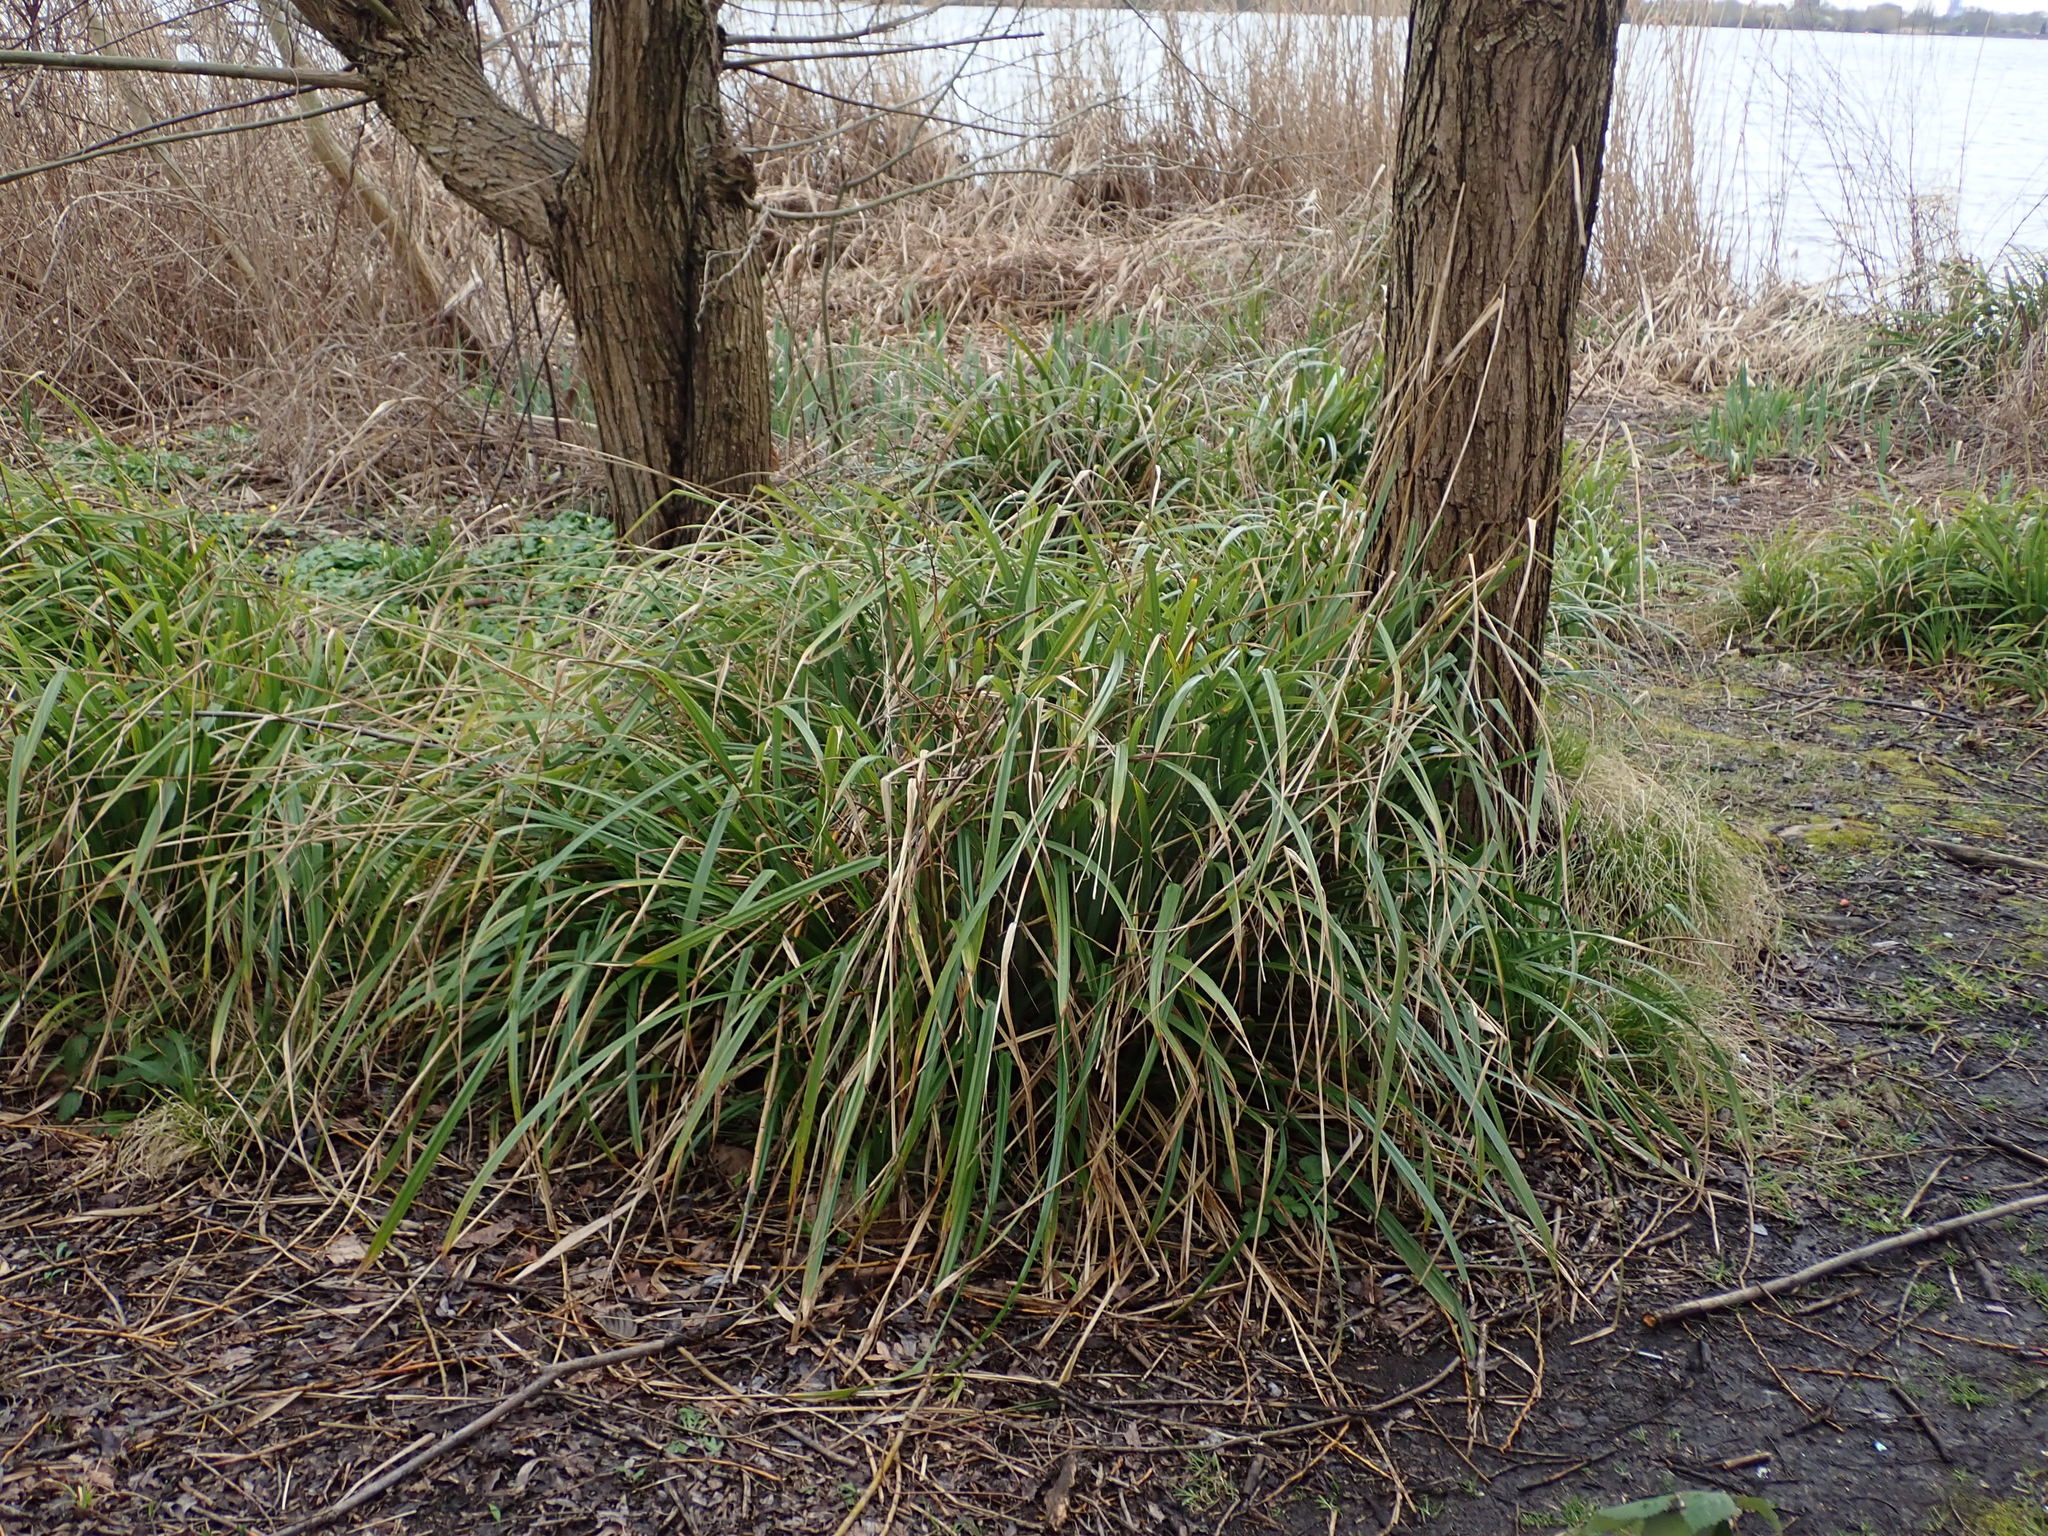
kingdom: Plantae
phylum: Tracheophyta
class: Liliopsida
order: Poales
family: Cyperaceae
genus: Carex
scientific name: Carex pendula
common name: Pendulous sedge
